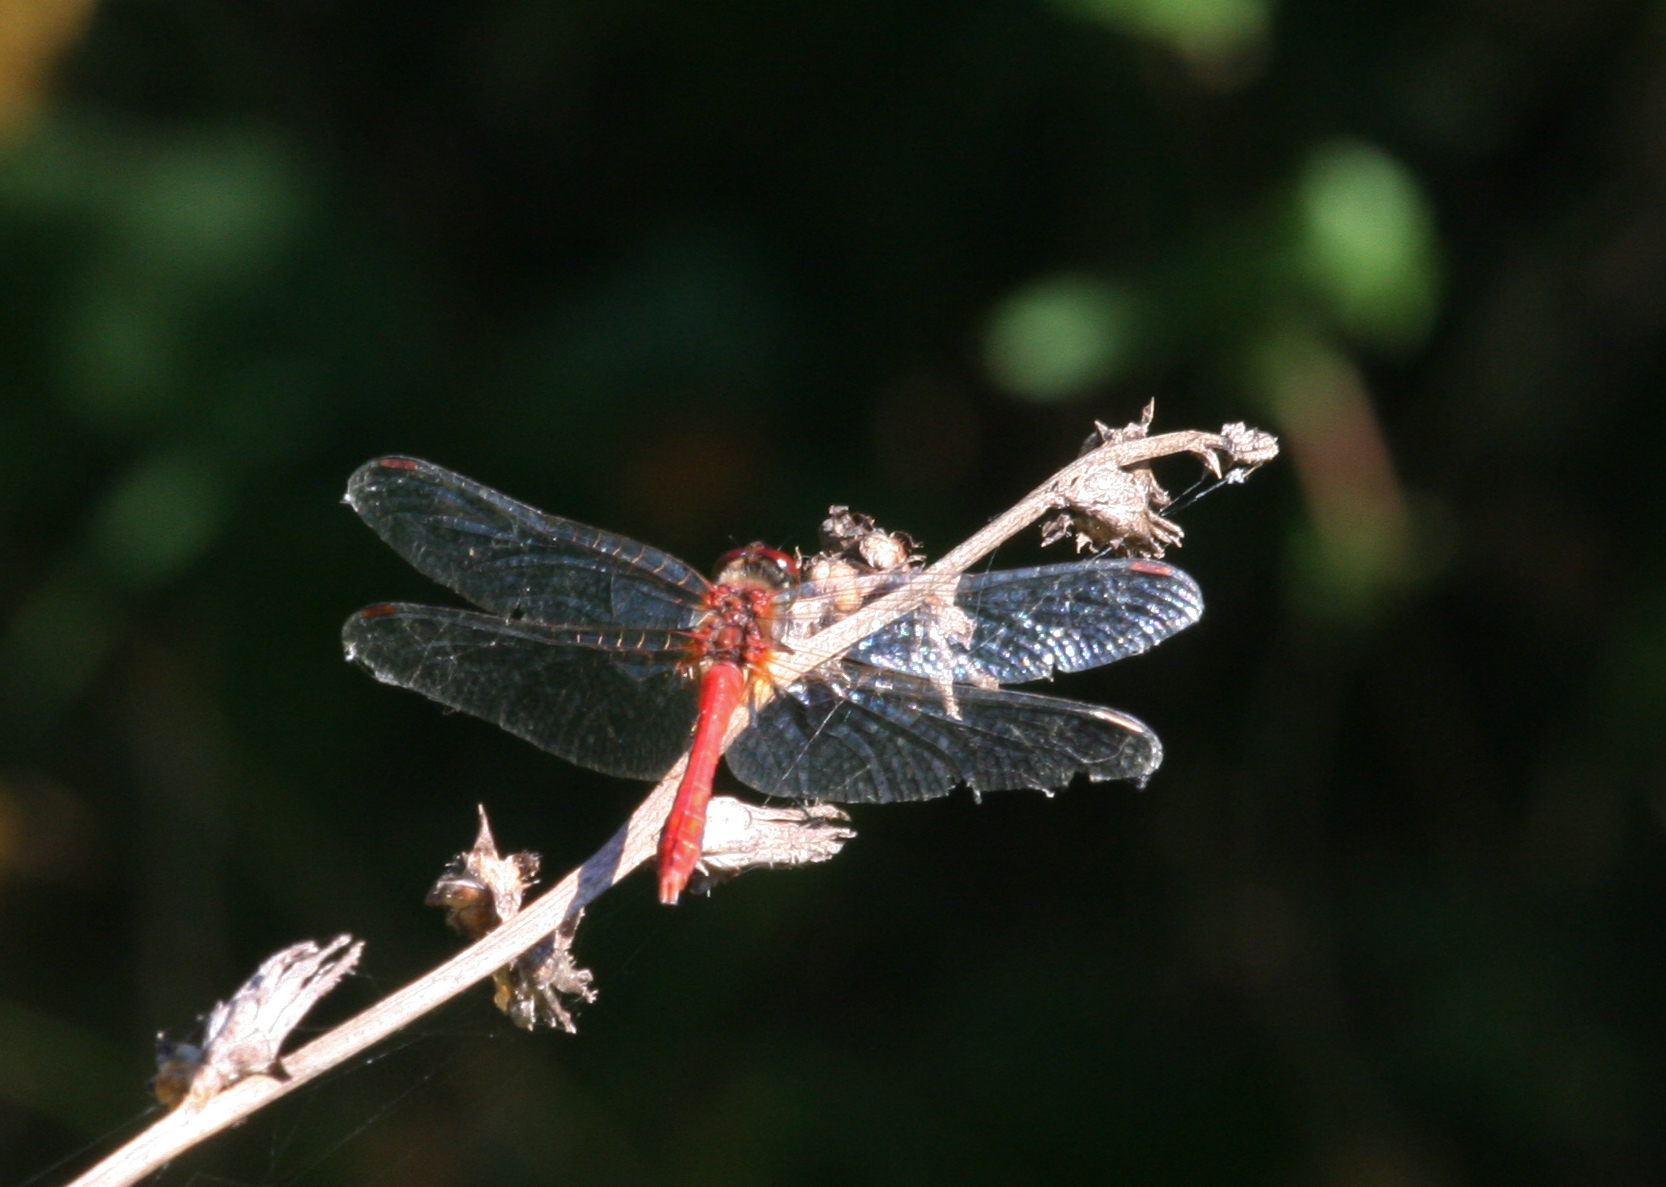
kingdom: Animalia
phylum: Arthropoda
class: Insecta
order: Odonata
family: Libellulidae
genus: Sympetrum
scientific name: Sympetrum sanguineum
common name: Ruddy darter
